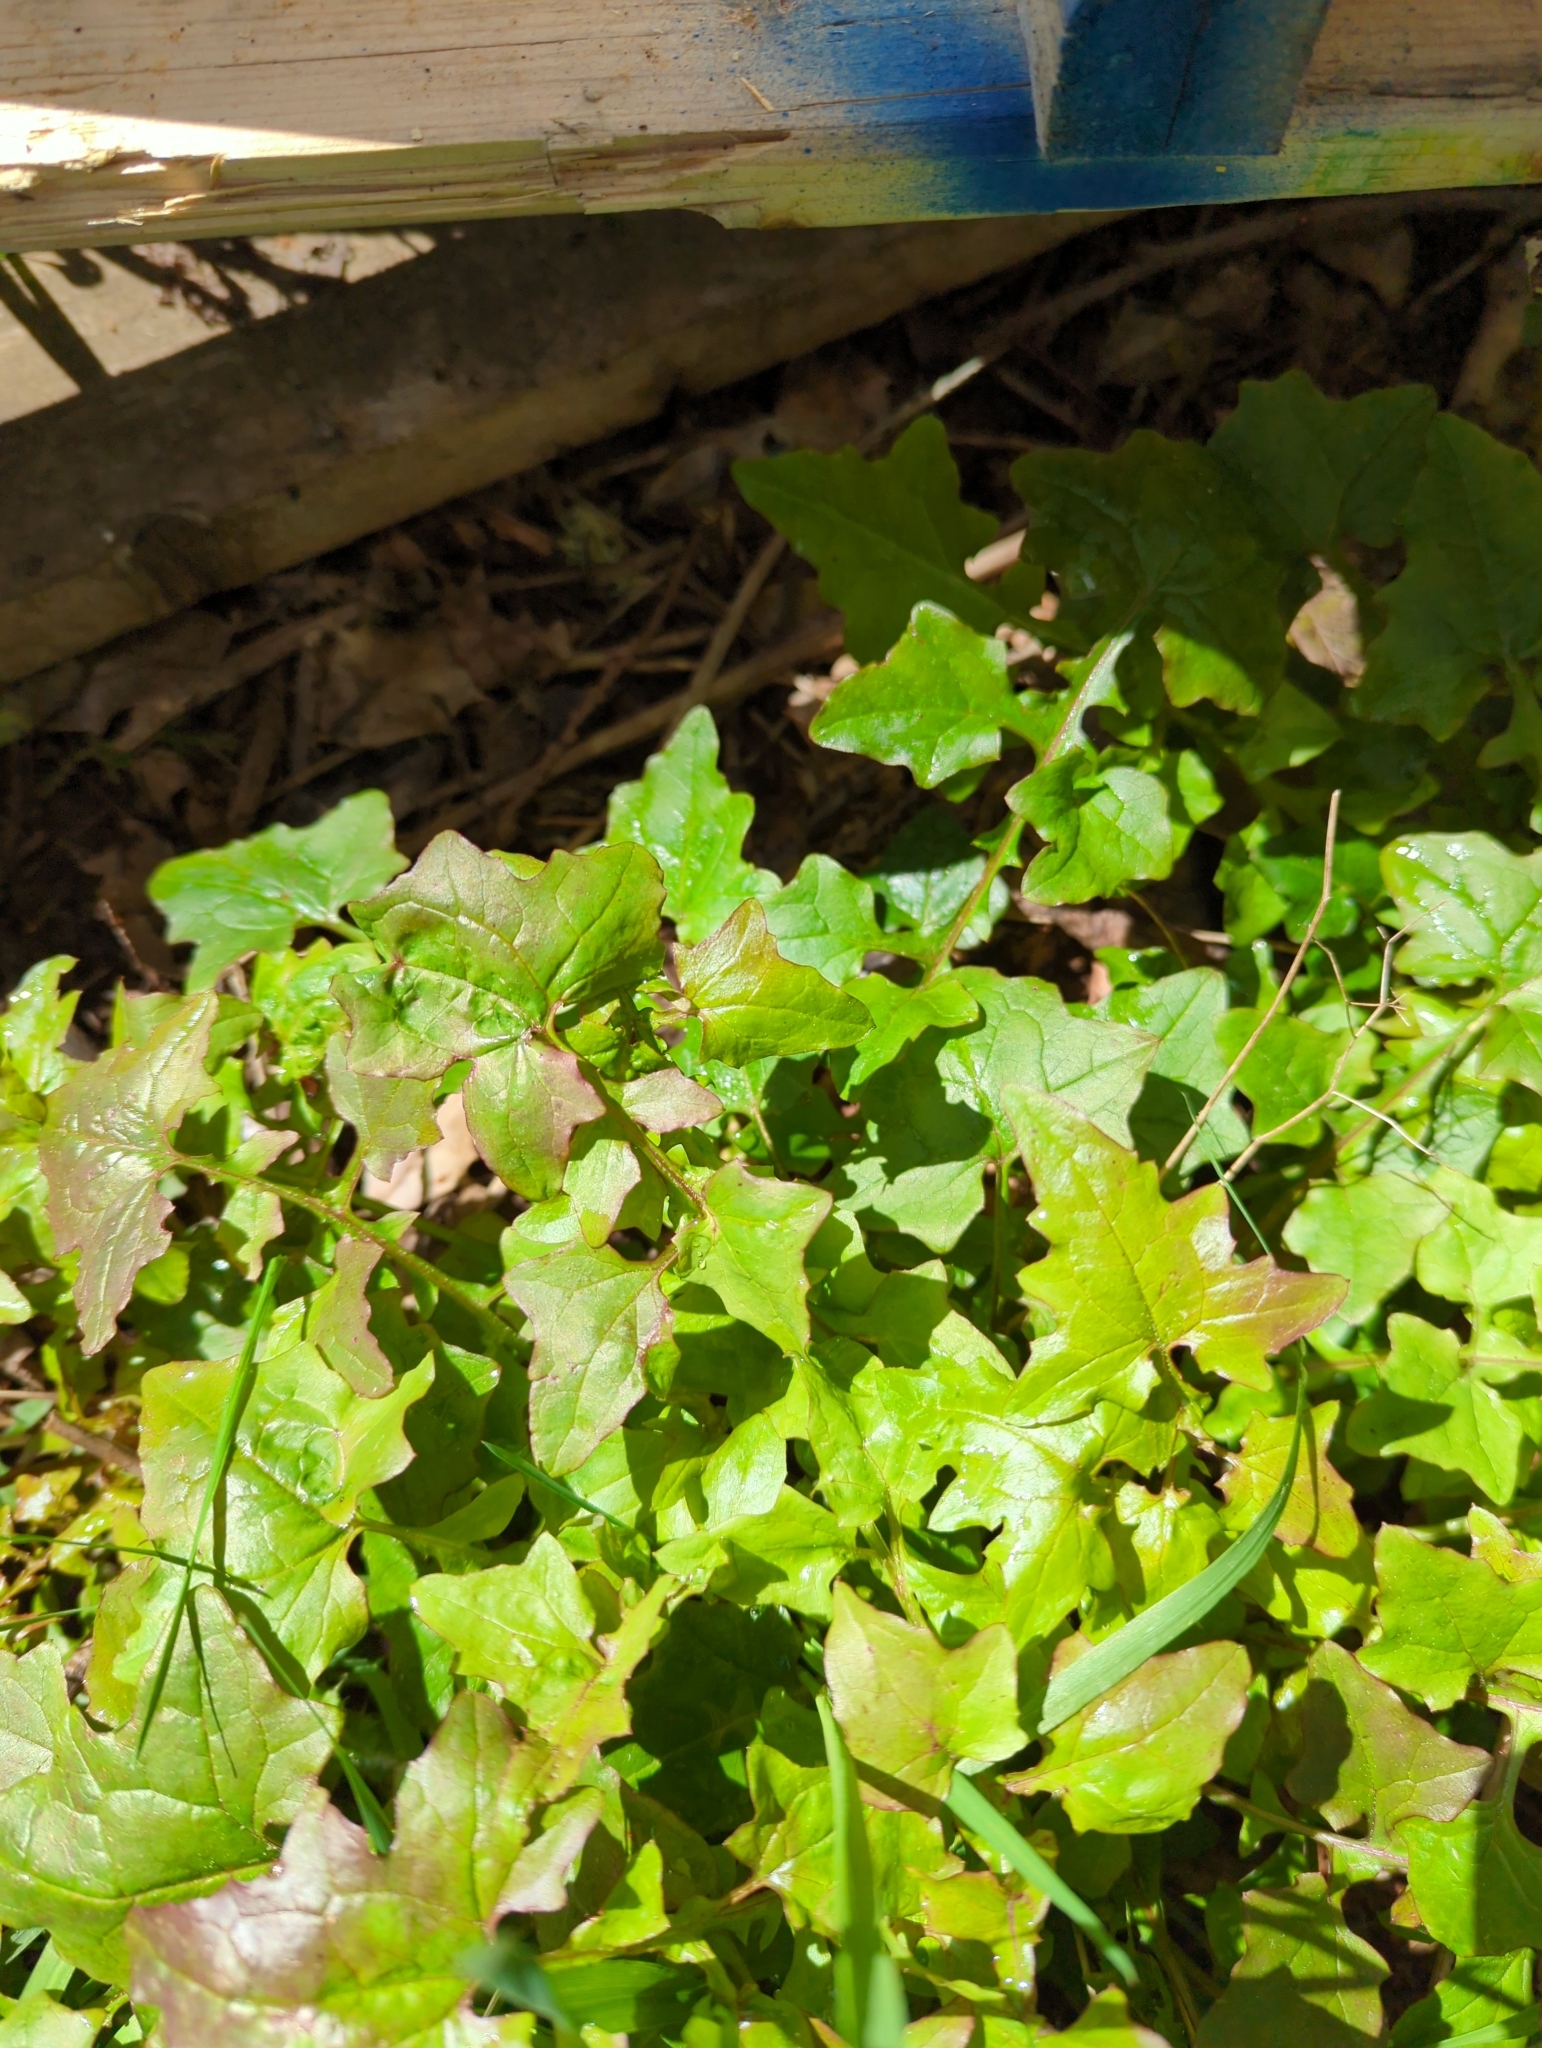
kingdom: Plantae
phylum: Tracheophyta
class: Magnoliopsida
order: Asterales
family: Asteraceae
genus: Mycelis
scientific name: Mycelis muralis
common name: Wall lettuce
